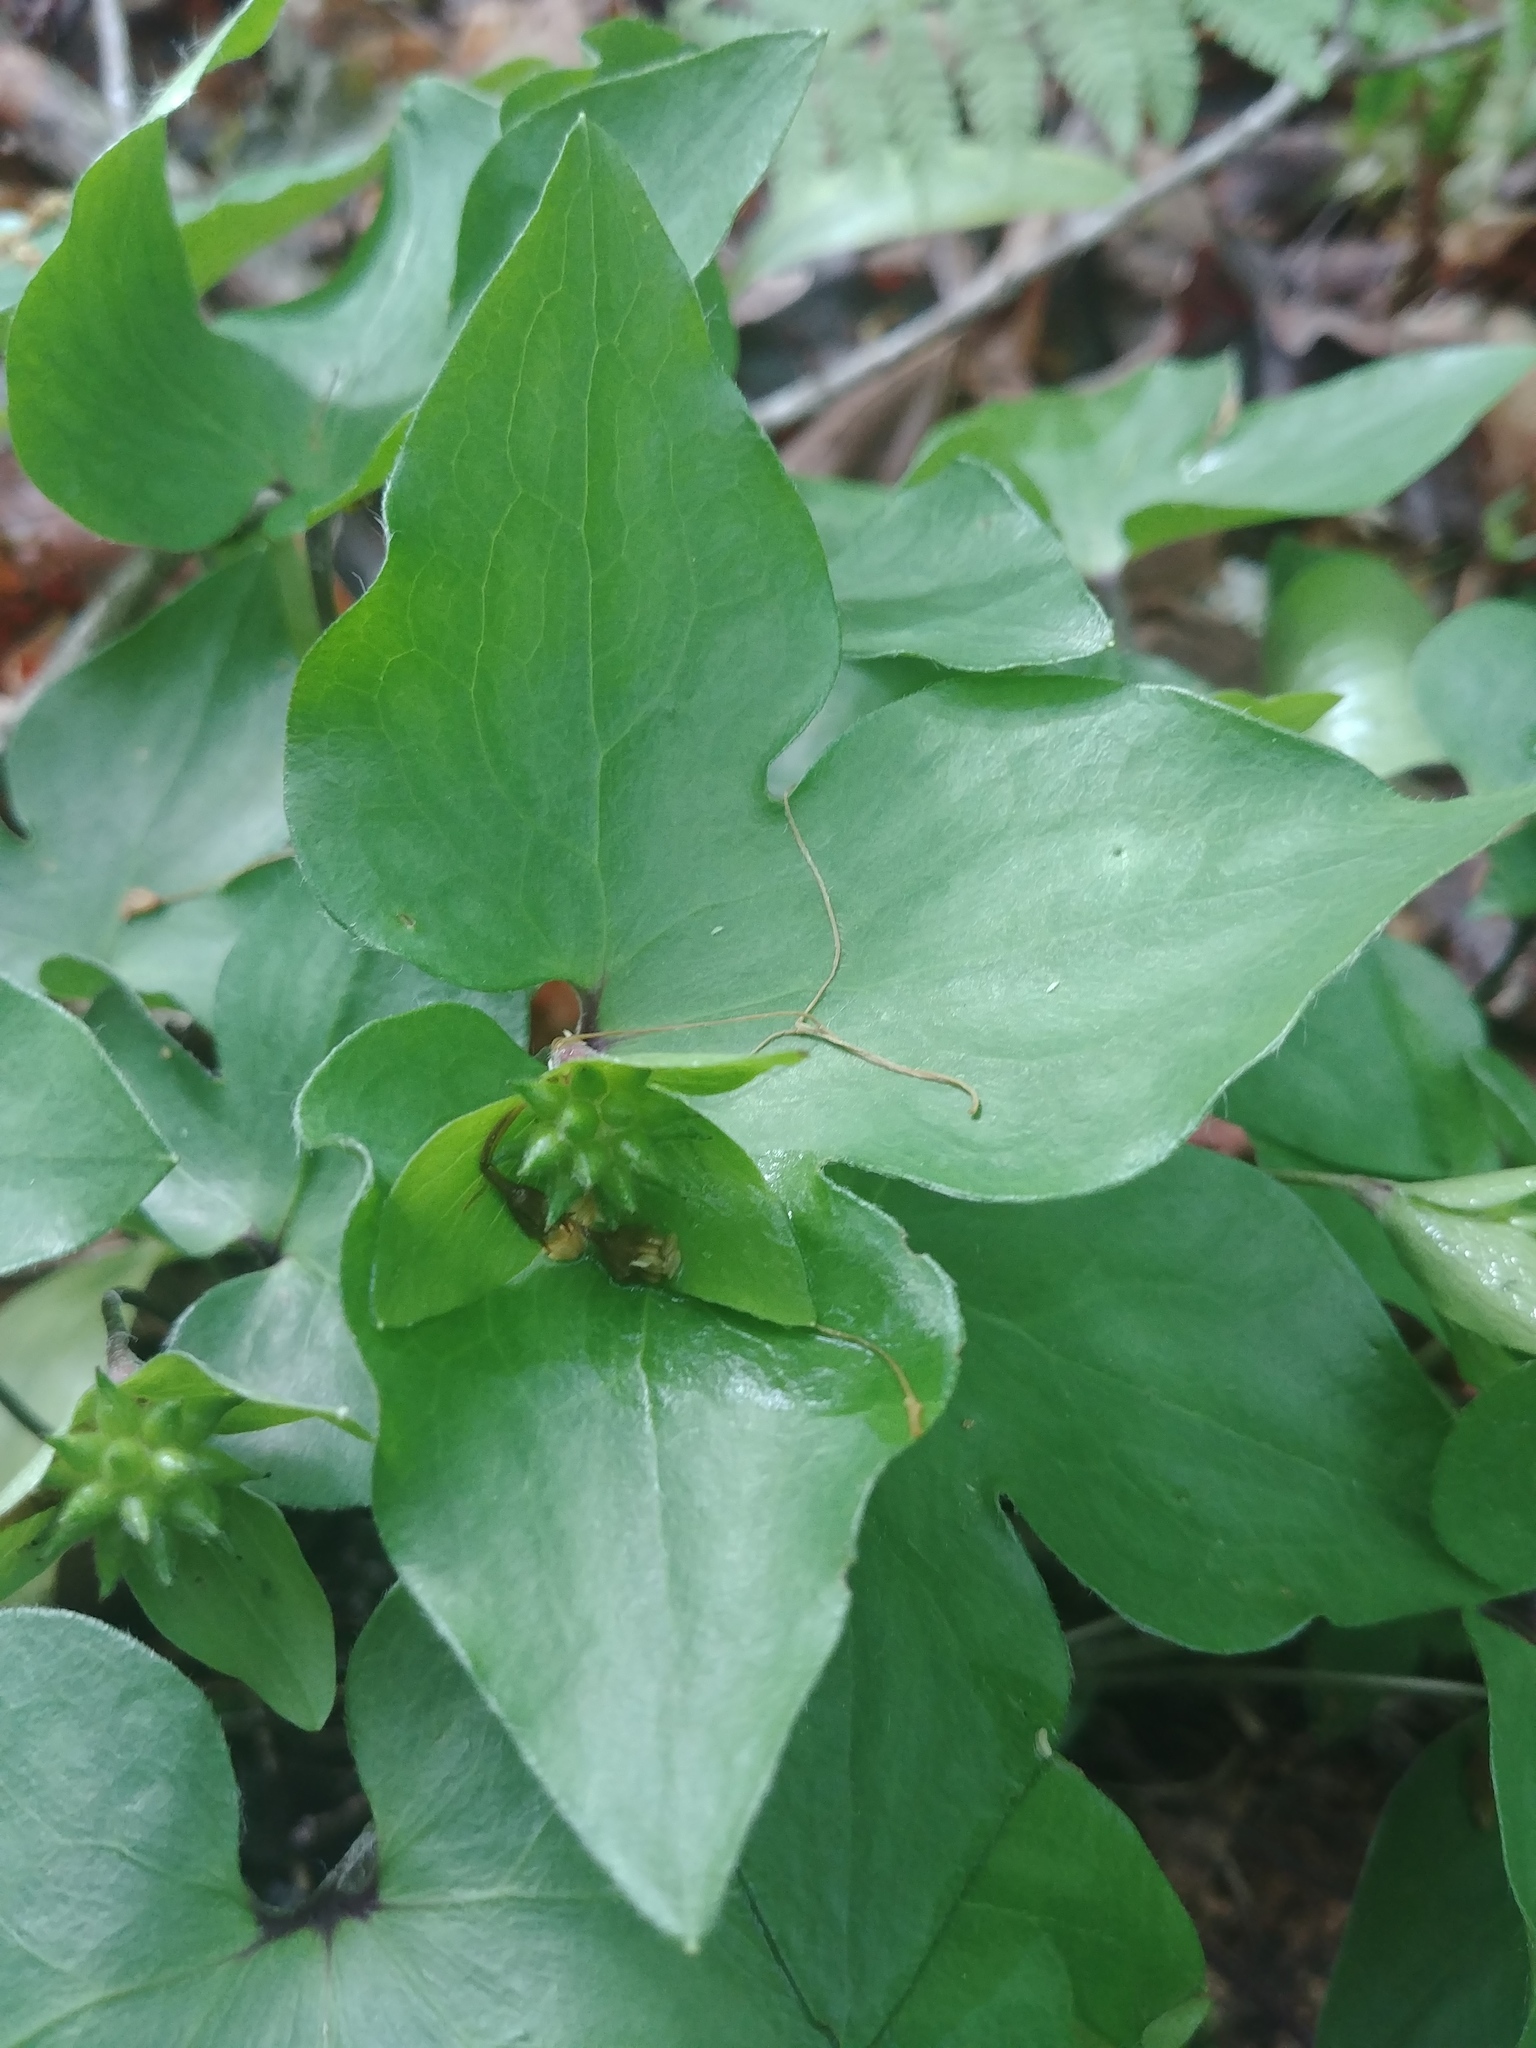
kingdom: Plantae
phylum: Tracheophyta
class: Magnoliopsida
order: Ranunculales
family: Ranunculaceae
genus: Hepatica
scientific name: Hepatica acutiloba
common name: Sharp-lobed hepatica
